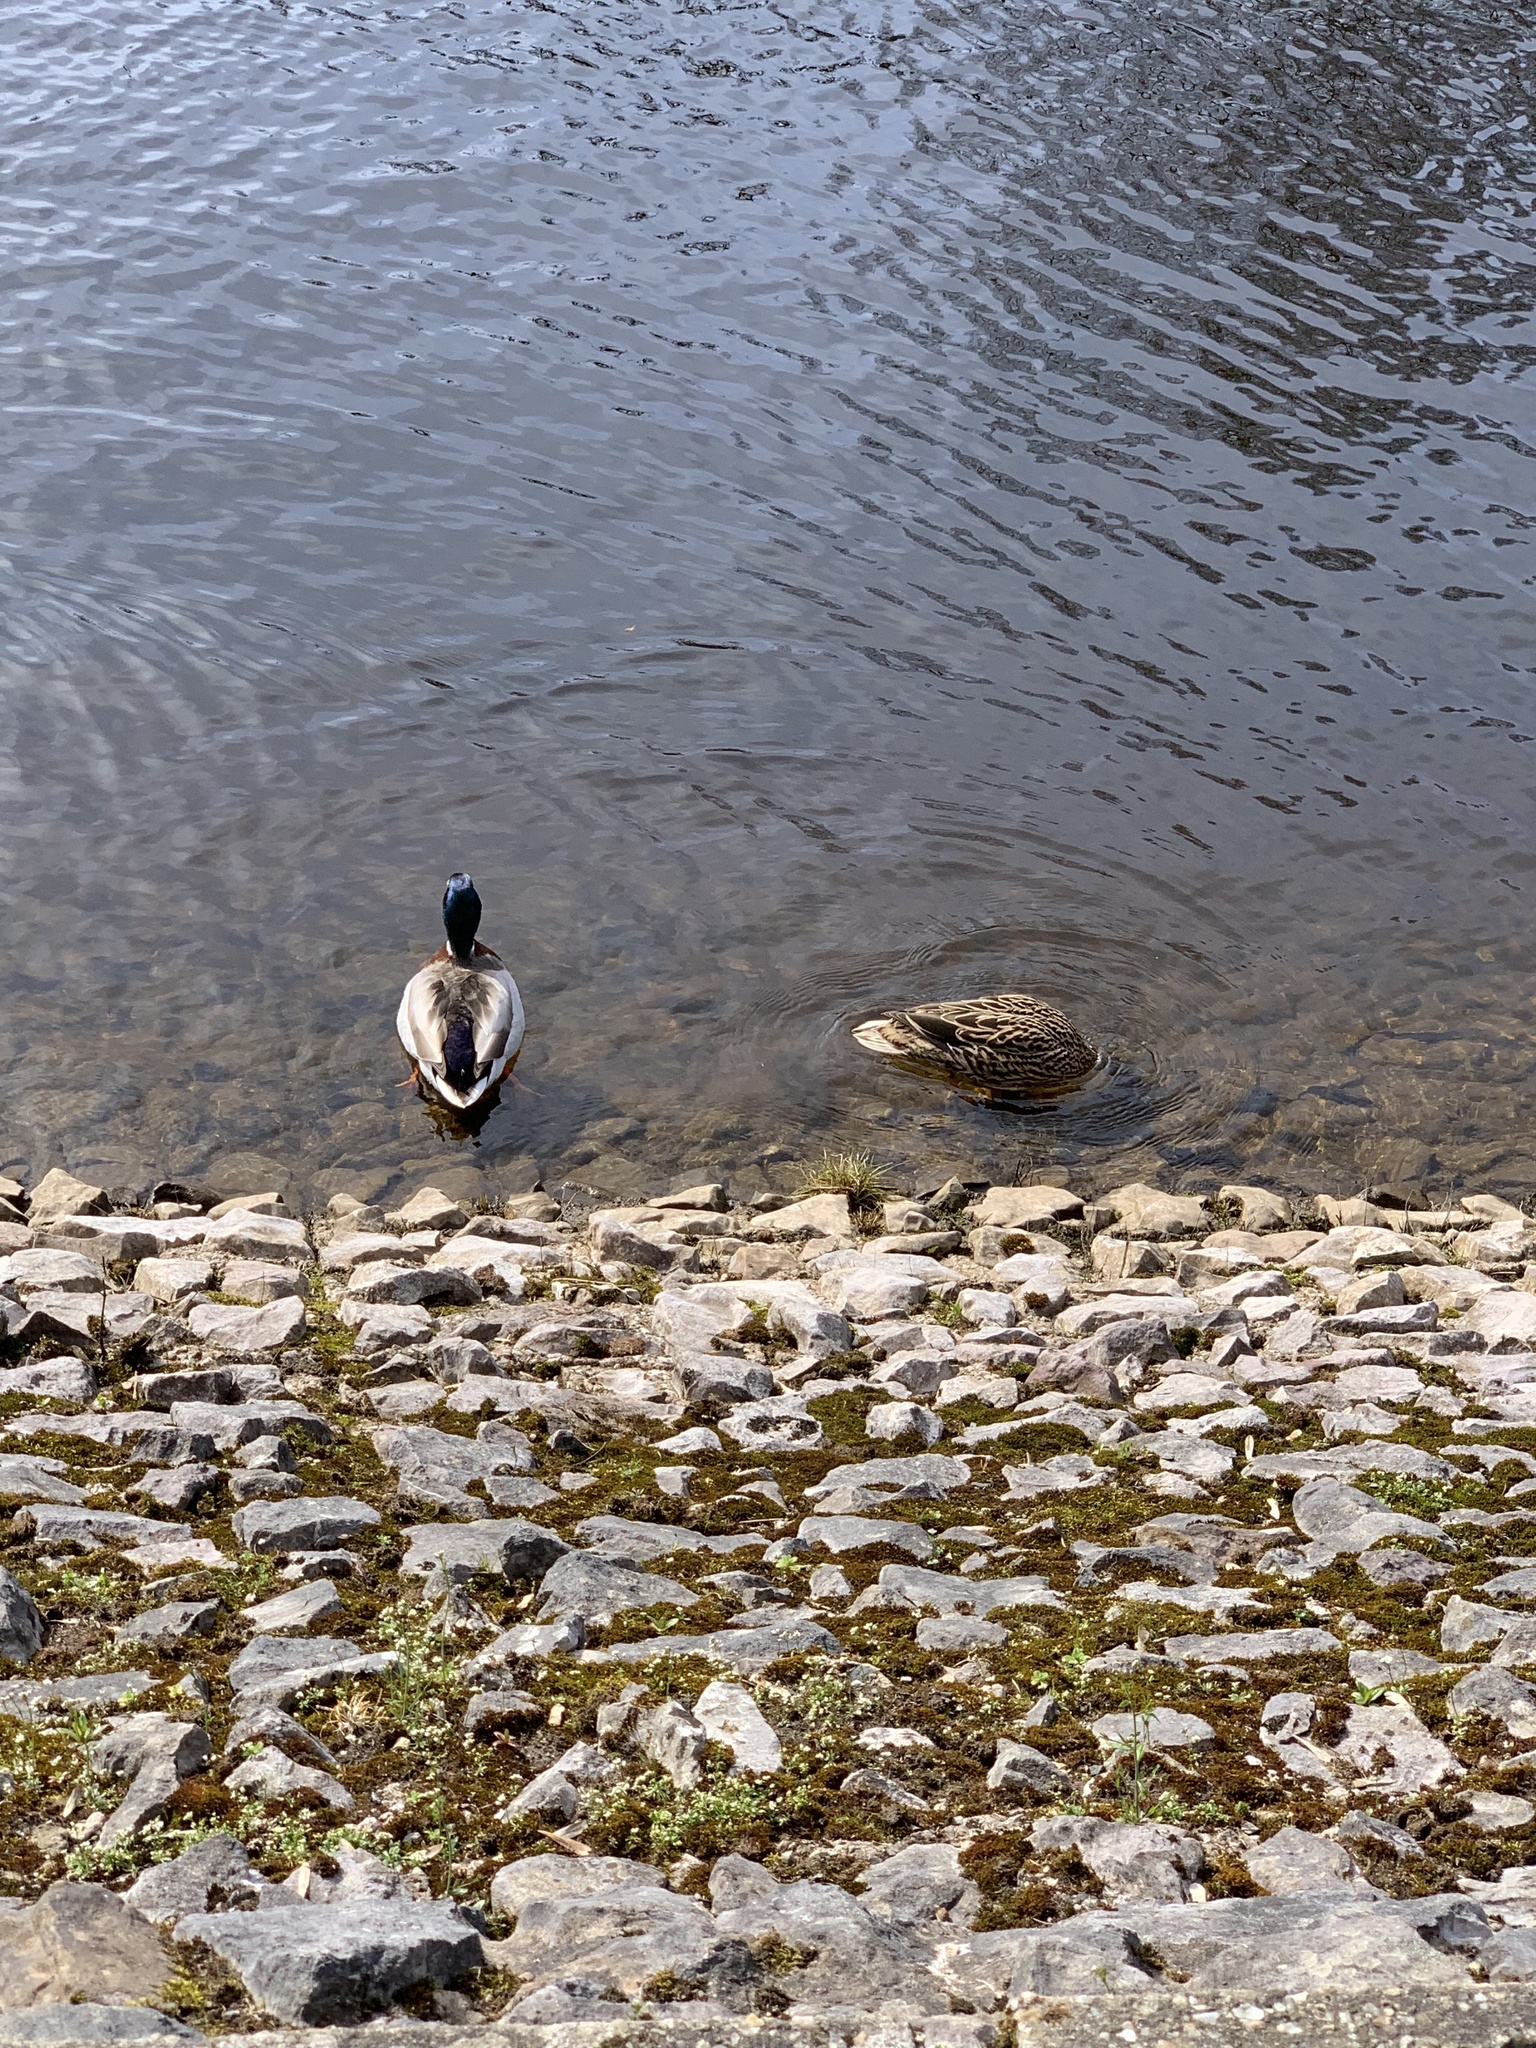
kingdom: Animalia
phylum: Chordata
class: Aves
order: Anseriformes
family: Anatidae
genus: Anas
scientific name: Anas platyrhynchos
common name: Mallard
